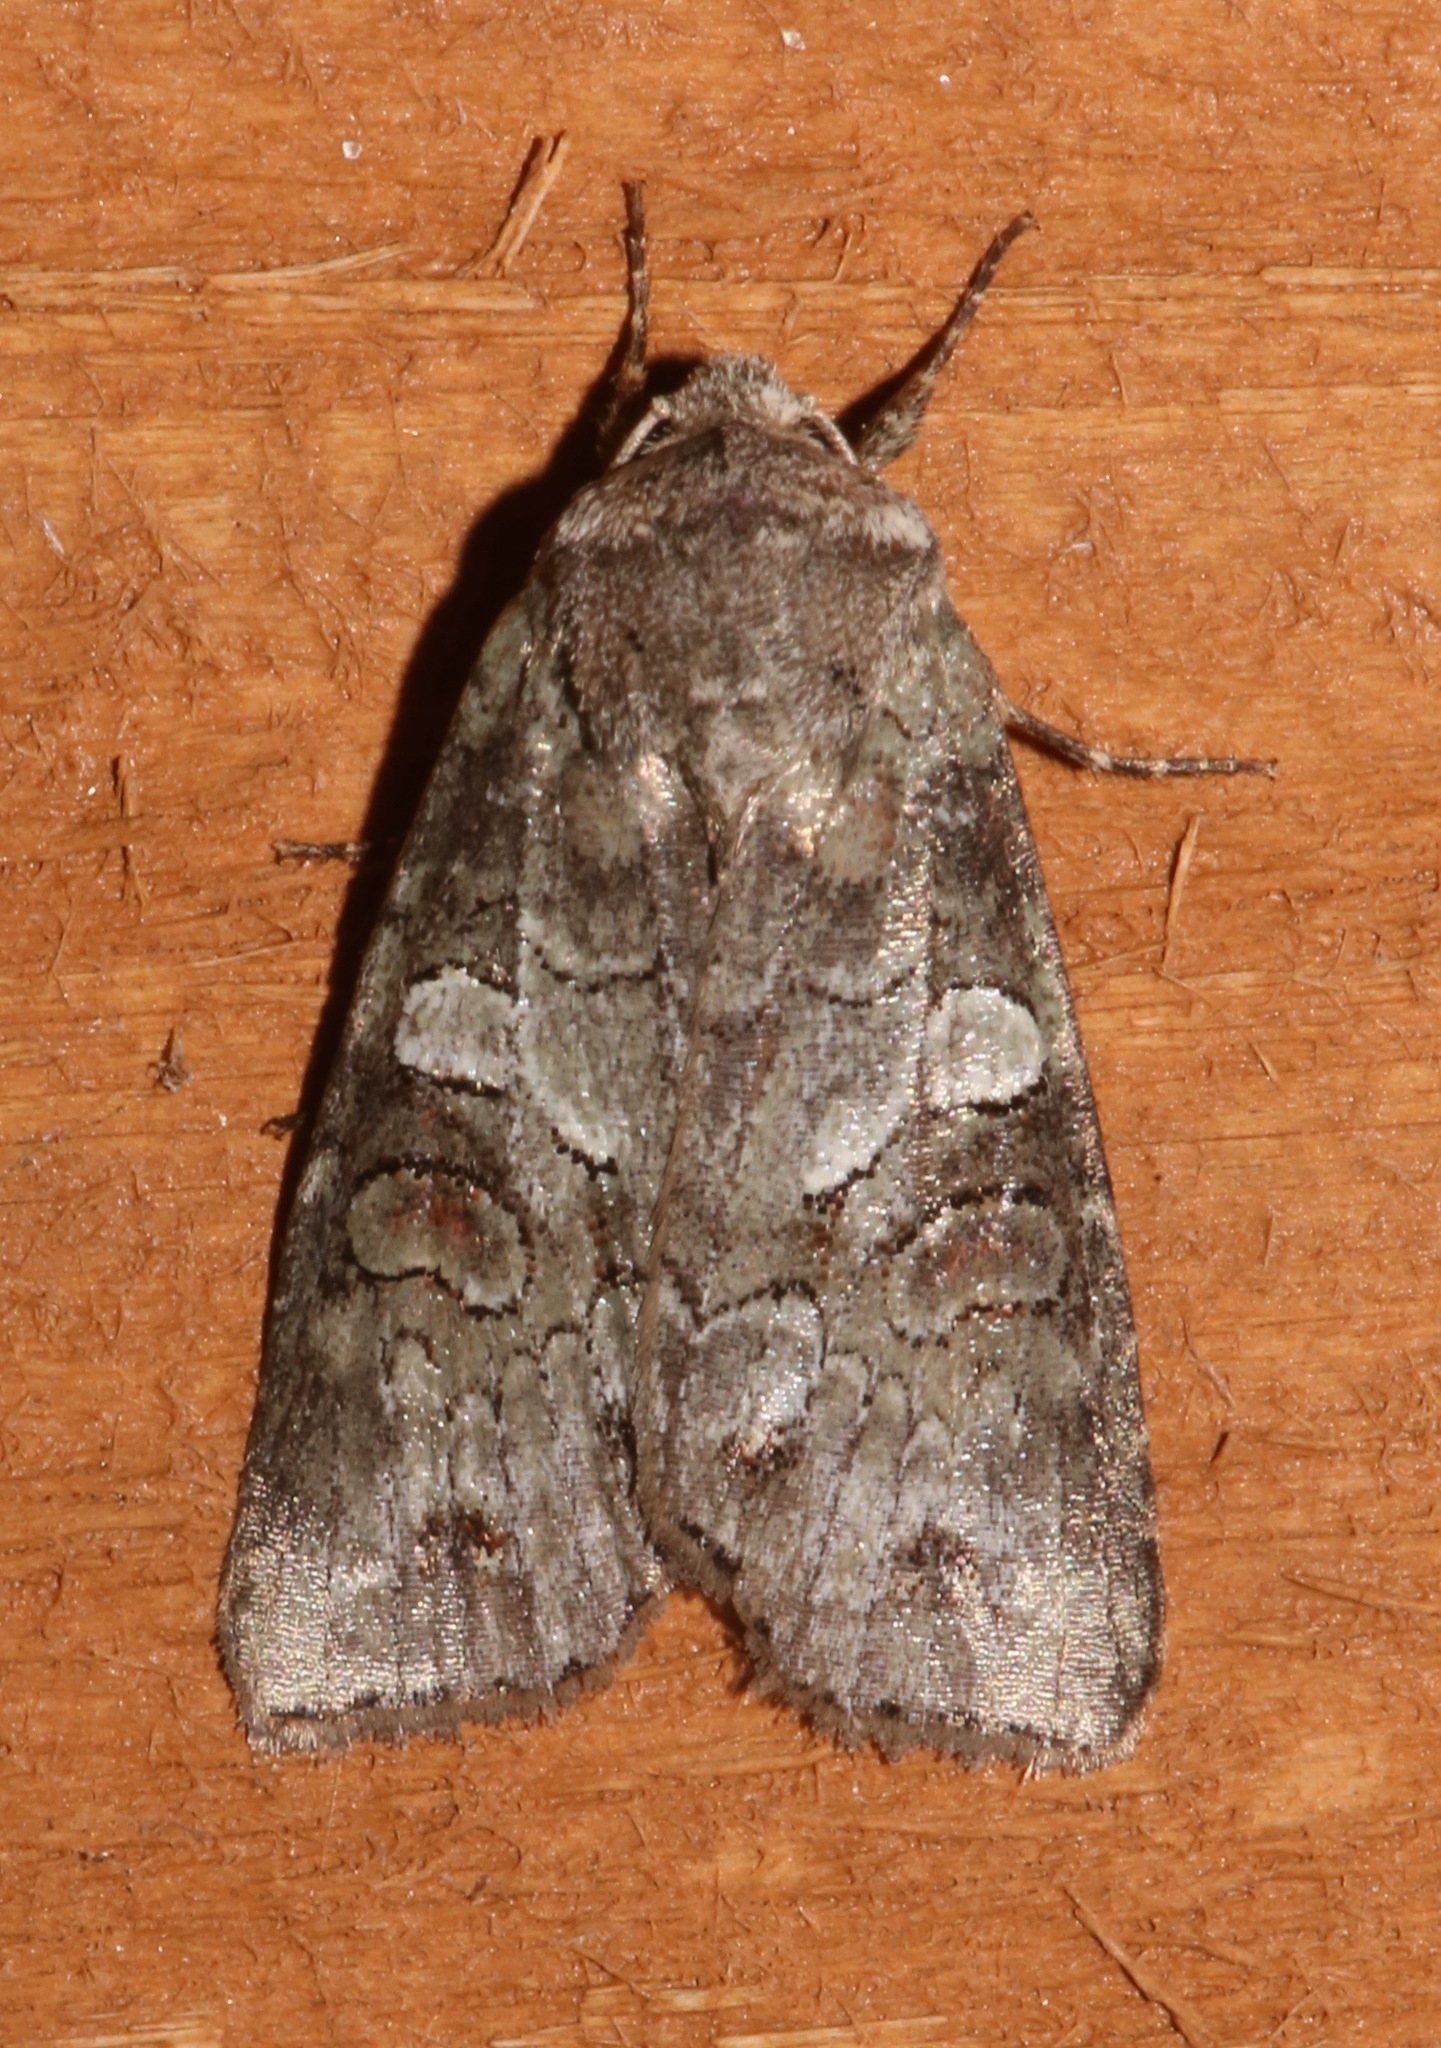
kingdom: Animalia
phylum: Arthropoda
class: Insecta
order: Lepidoptera
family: Noctuidae
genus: Egira
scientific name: Egira alternans
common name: Alternate woodling
